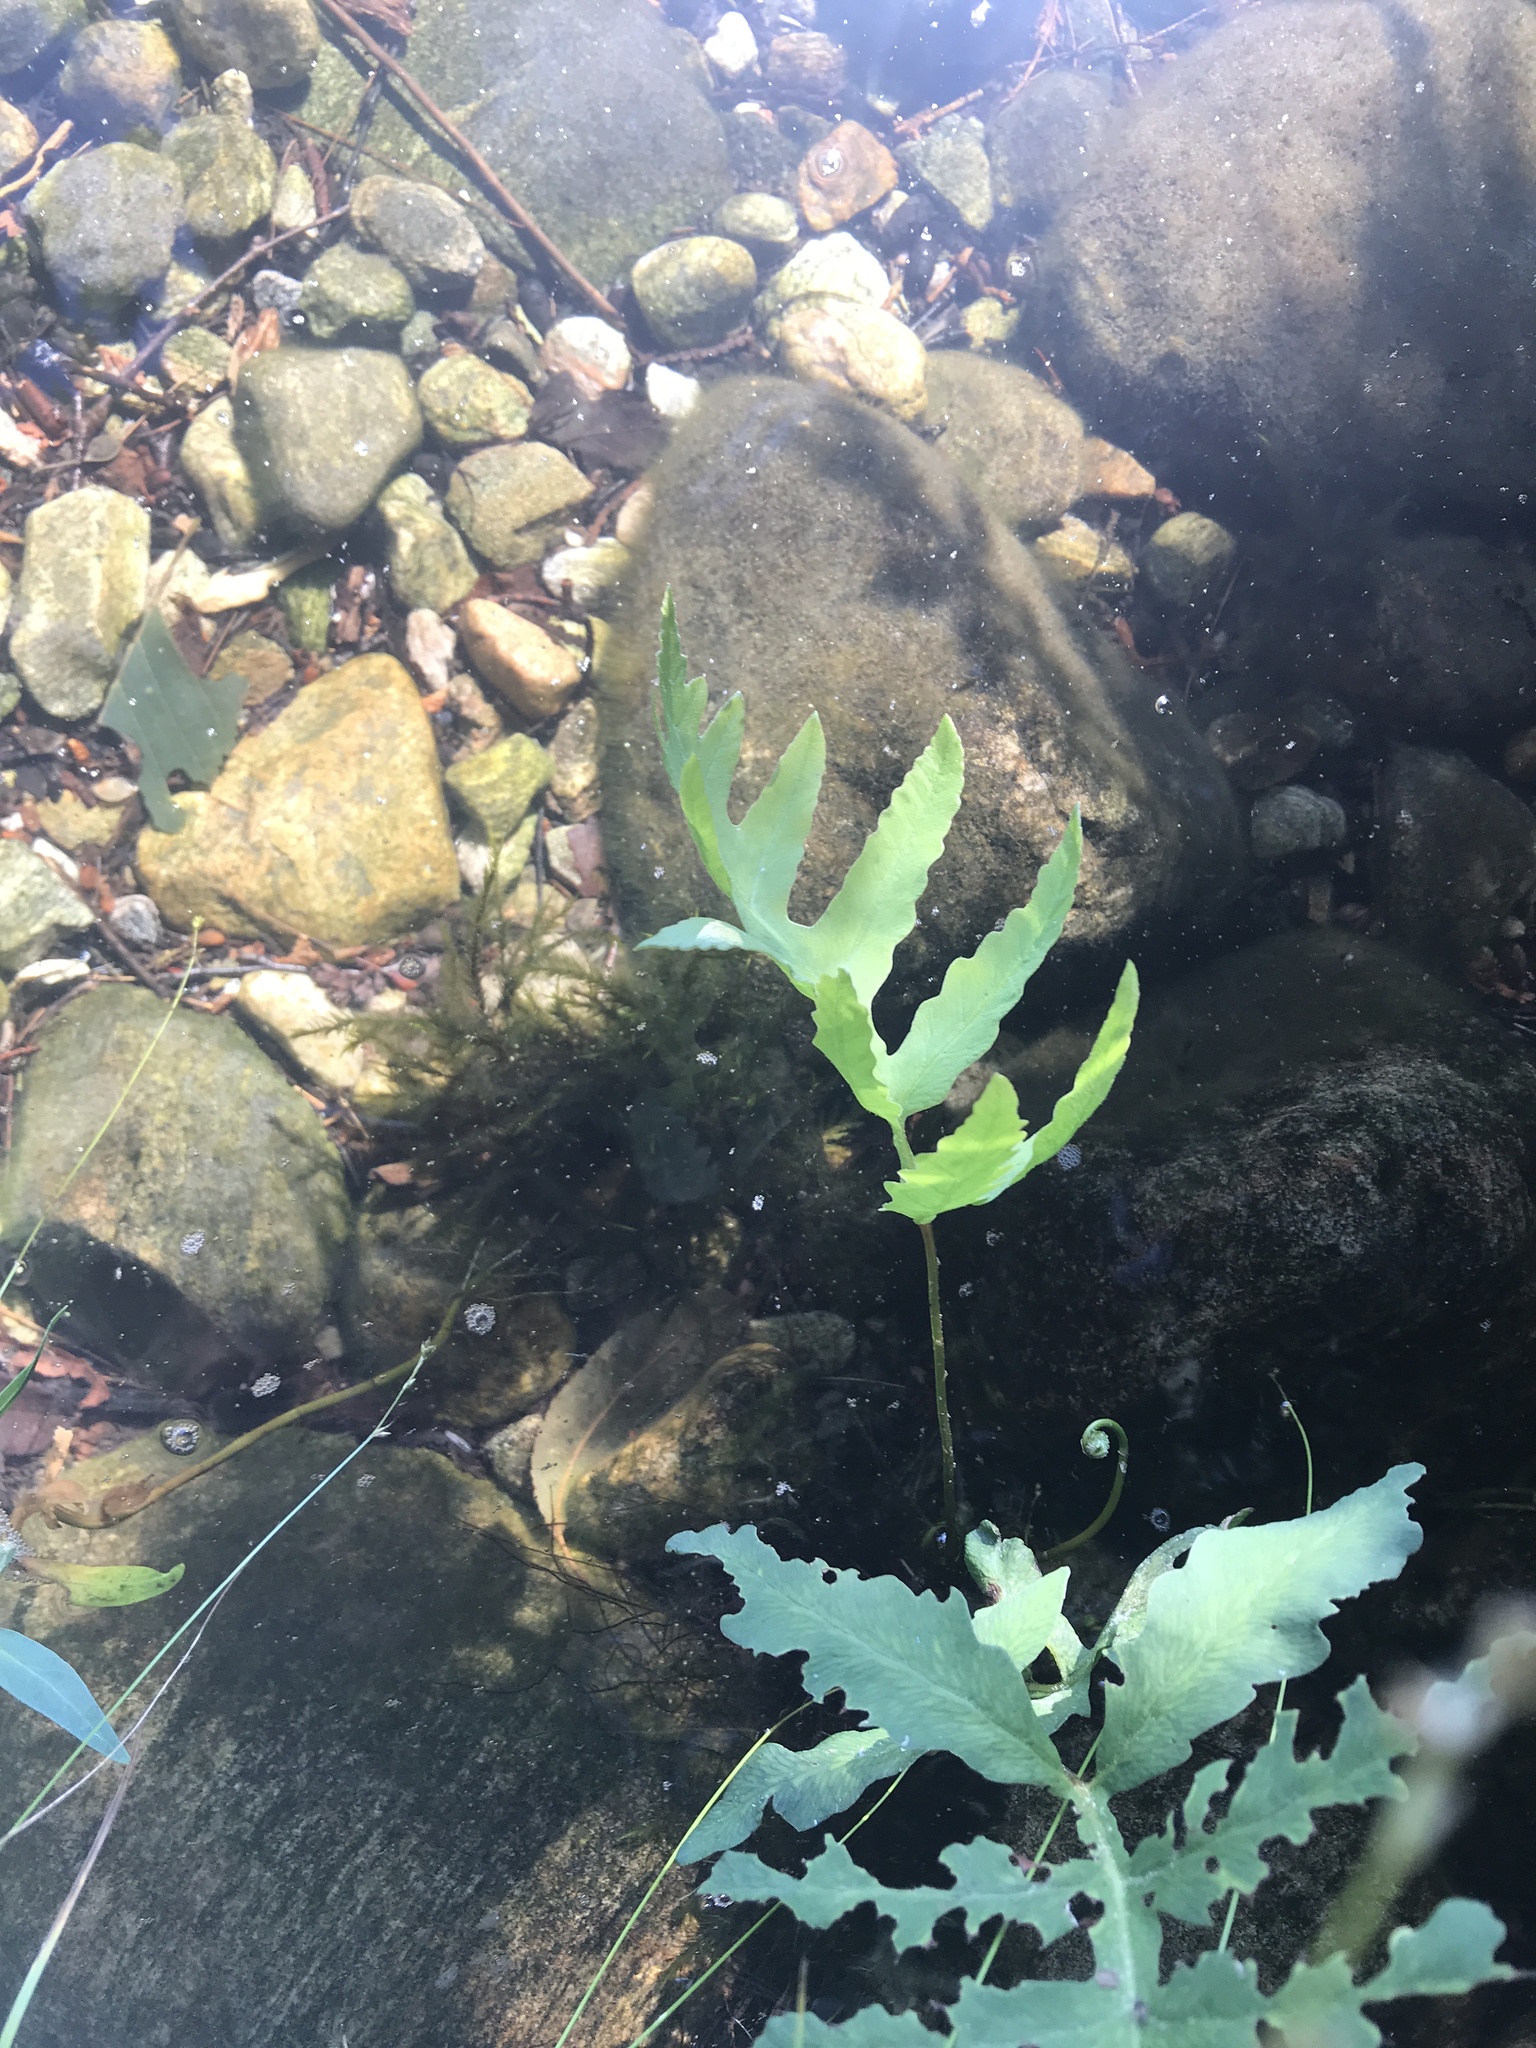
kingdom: Plantae
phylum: Tracheophyta
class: Polypodiopsida
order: Polypodiales
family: Onocleaceae
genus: Onoclea
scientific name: Onoclea sensibilis
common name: Sensitive fern
